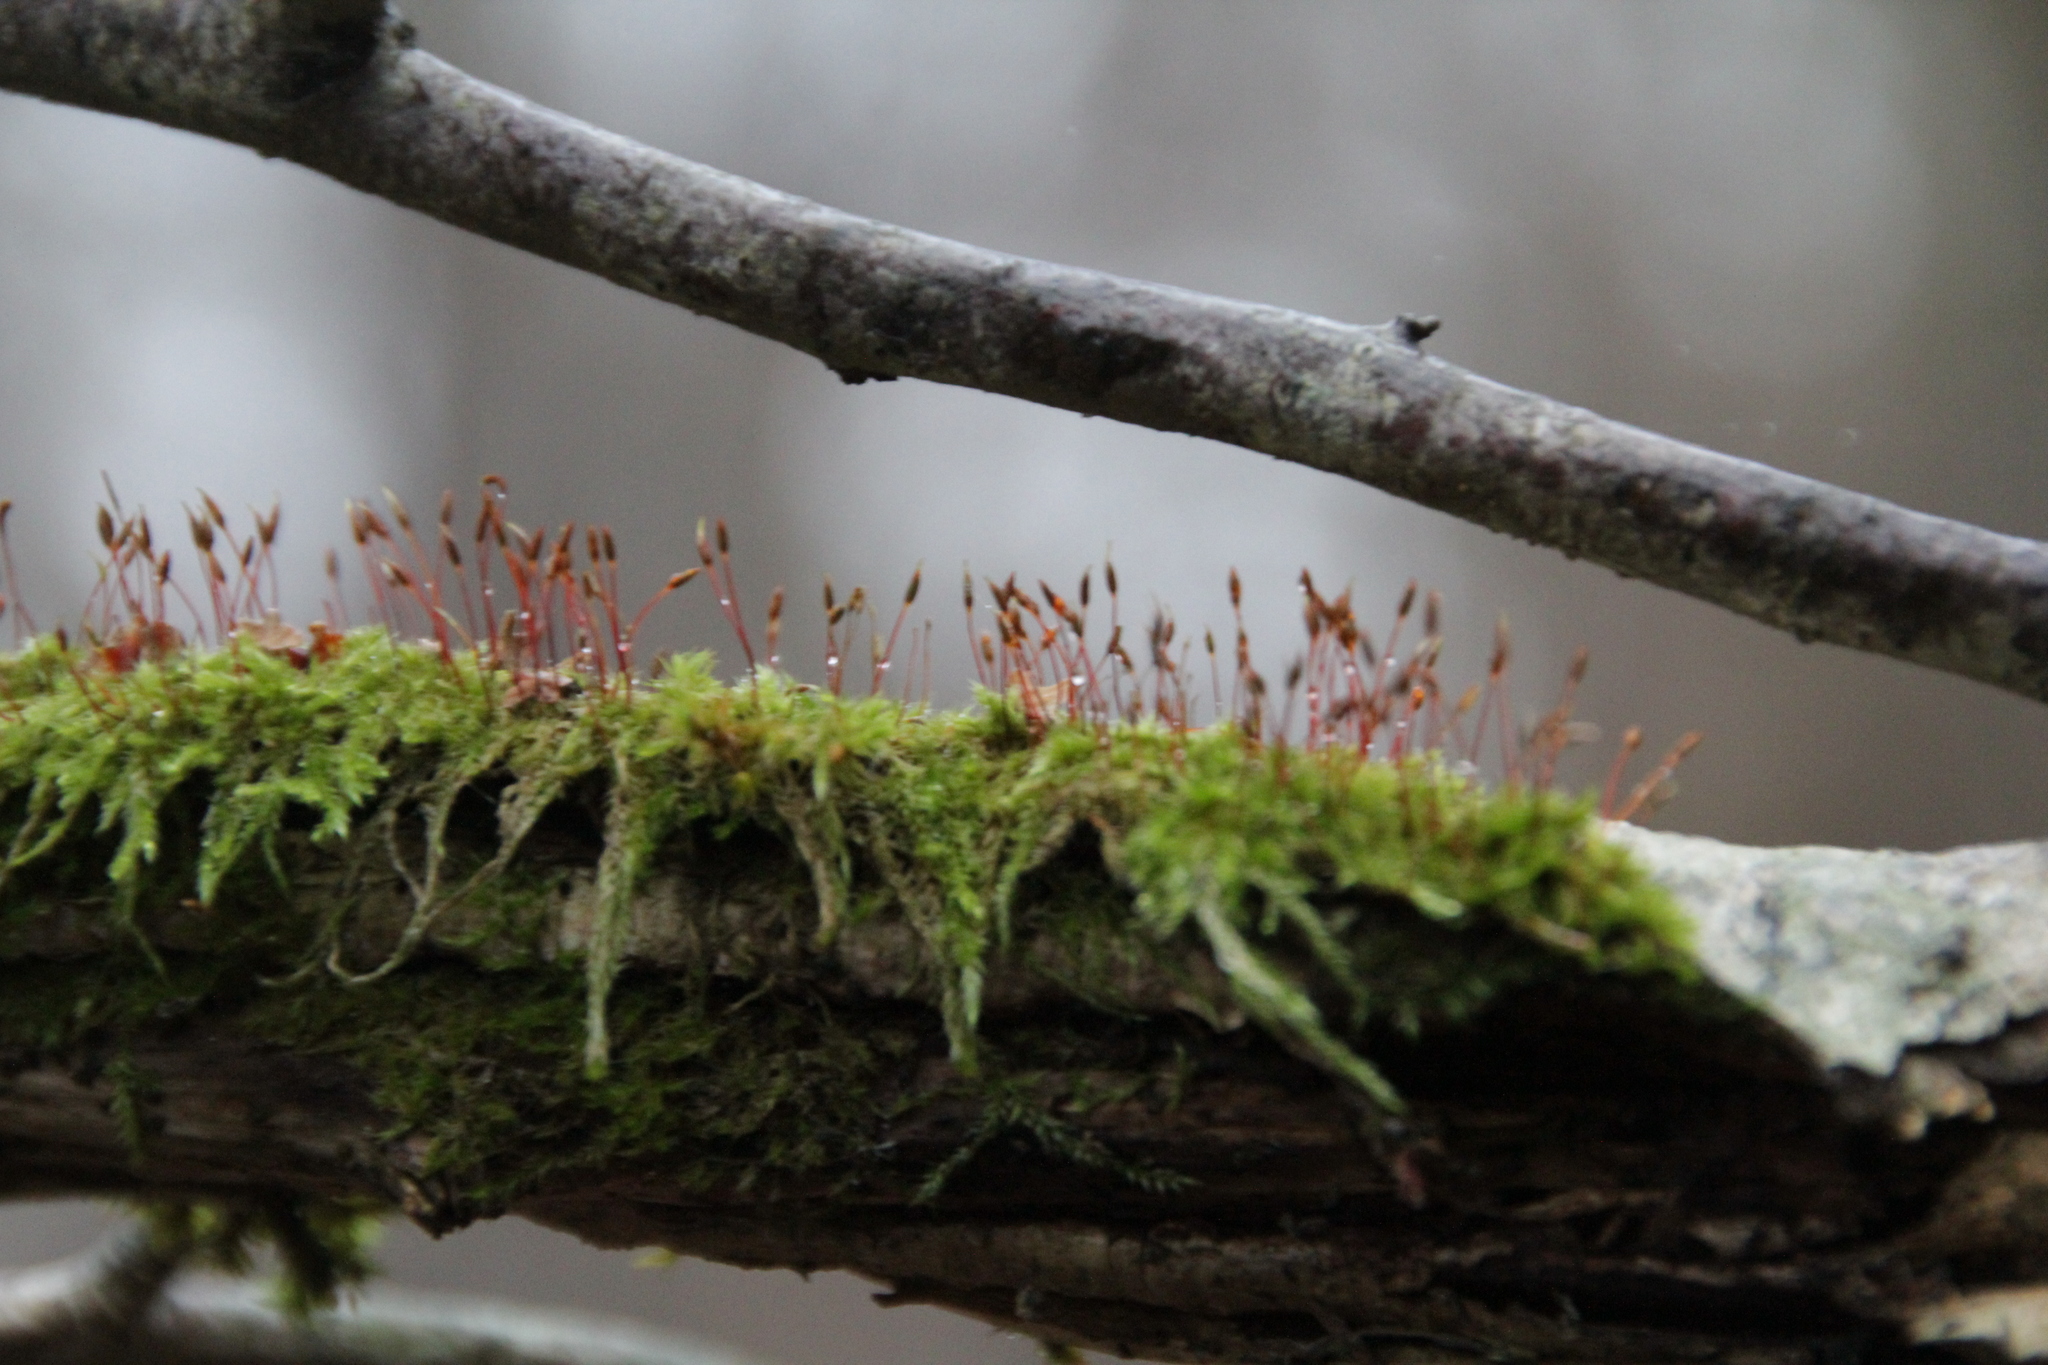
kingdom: Plantae
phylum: Bryophyta
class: Bryopsida
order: Hypnales
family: Hypnaceae
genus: Hypnum
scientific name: Hypnum cupressiforme
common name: Cypress-leaved plait-moss
